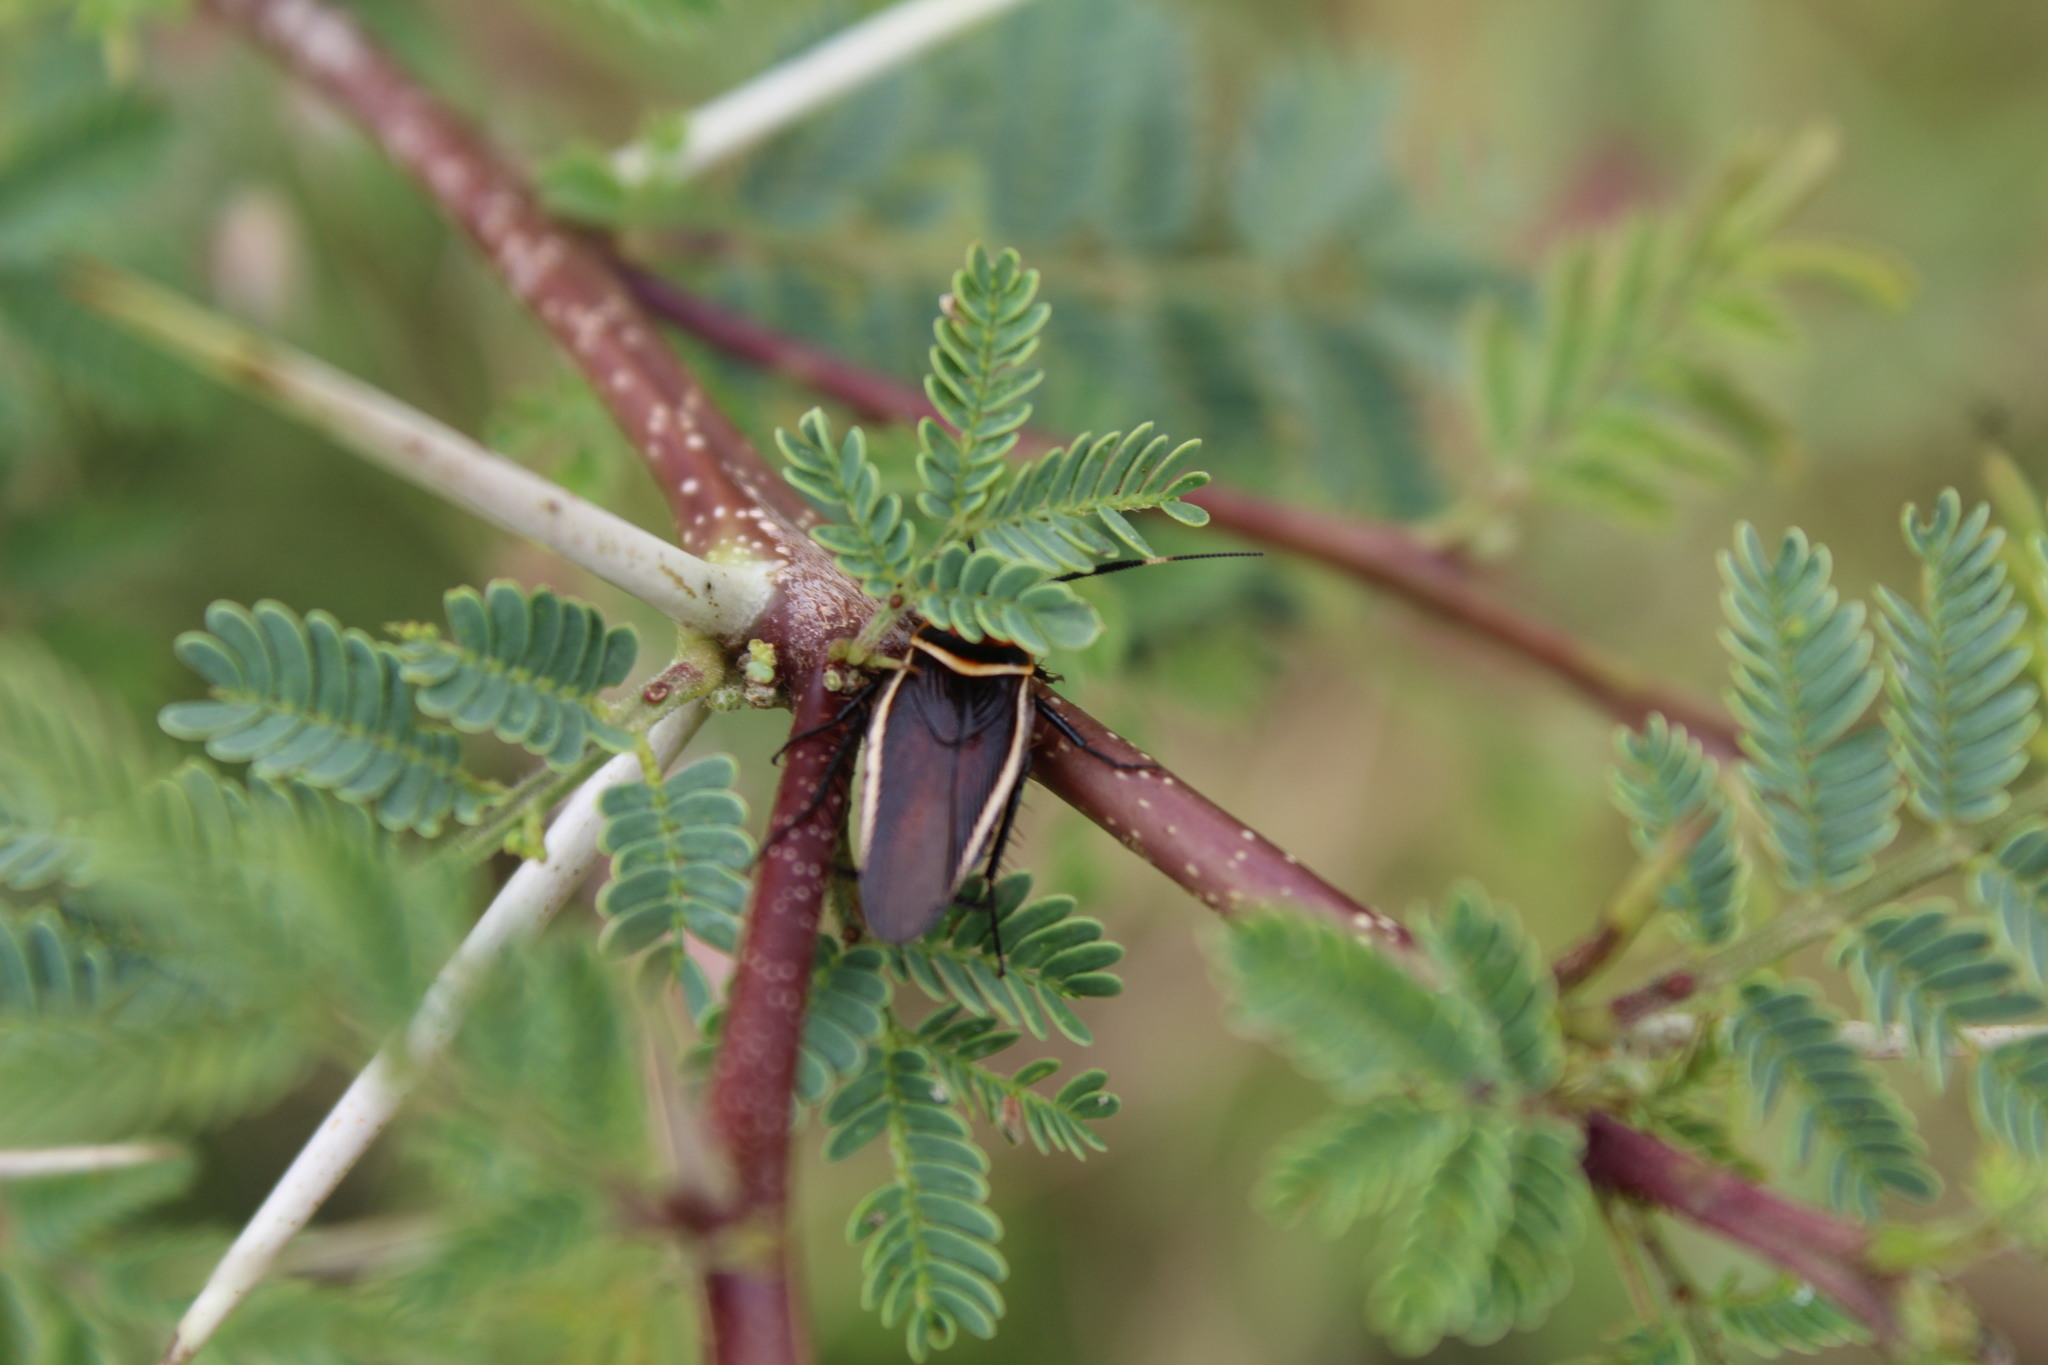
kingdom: Animalia
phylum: Arthropoda
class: Insecta
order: Blattodea
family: Ectobiidae
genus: Pseudomops
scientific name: Pseudomops interceptus
